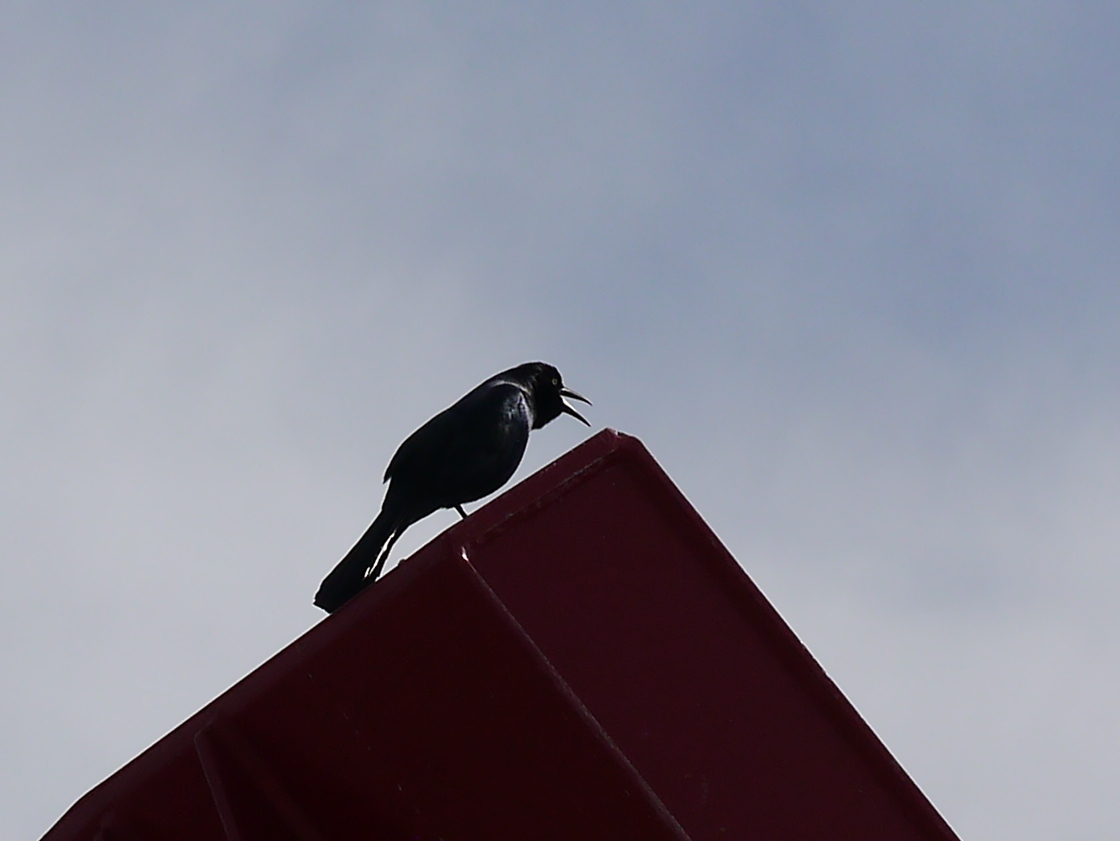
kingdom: Animalia
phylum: Chordata
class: Aves
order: Passeriformes
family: Icteridae
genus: Quiscalus
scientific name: Quiscalus major
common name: Boat-tailed grackle
